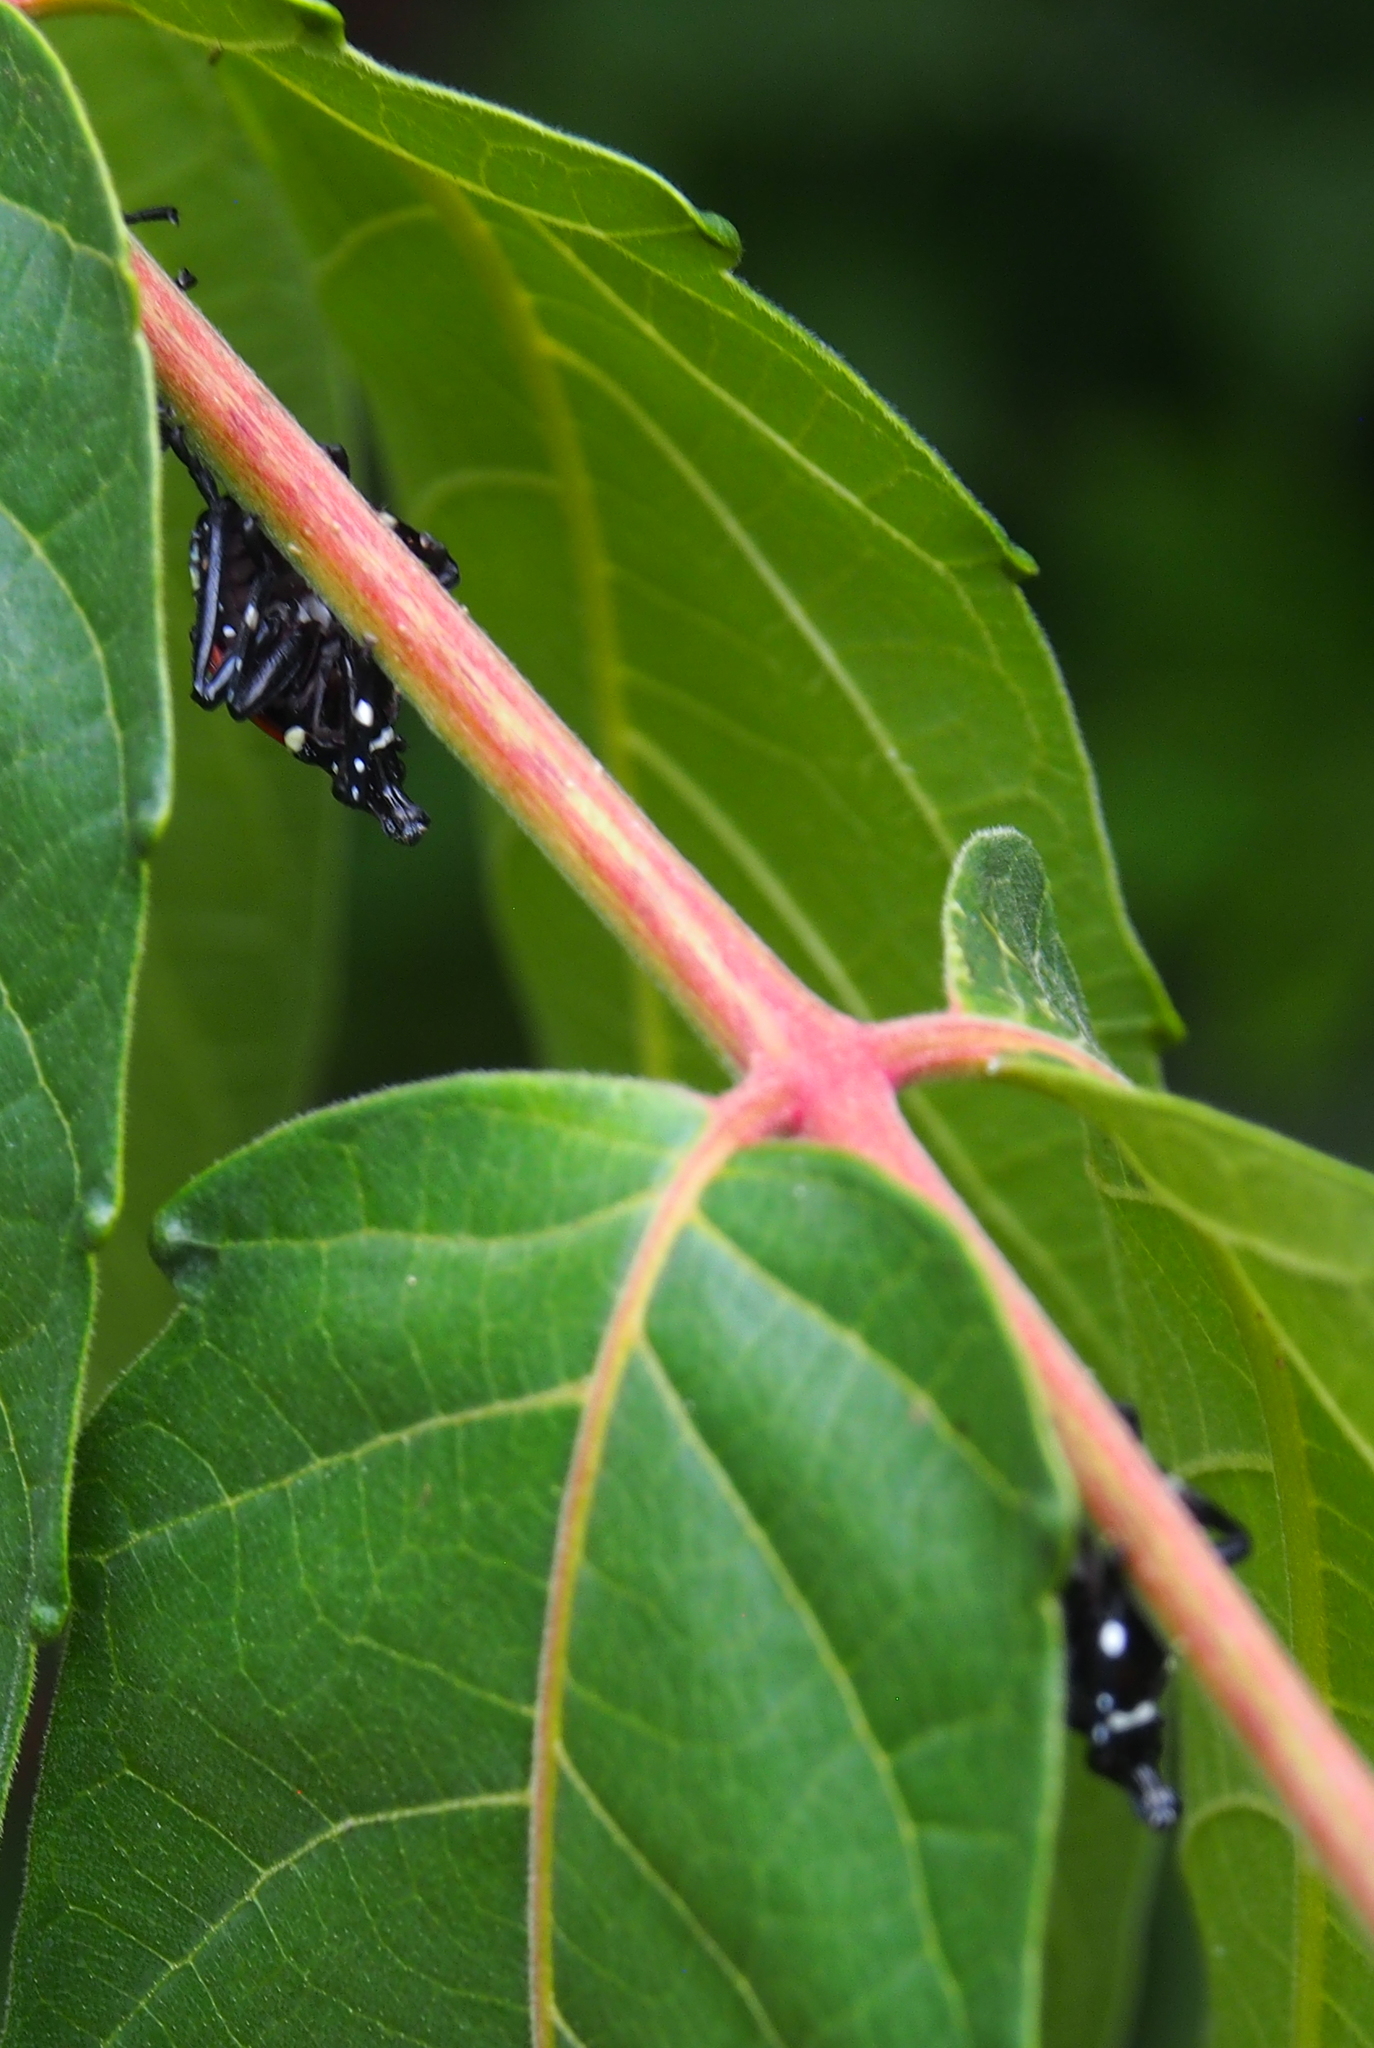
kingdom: Animalia
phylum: Arthropoda
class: Insecta
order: Hemiptera
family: Fulgoridae
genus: Lycorma
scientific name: Lycorma delicatula
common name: Spotted lanternfly
